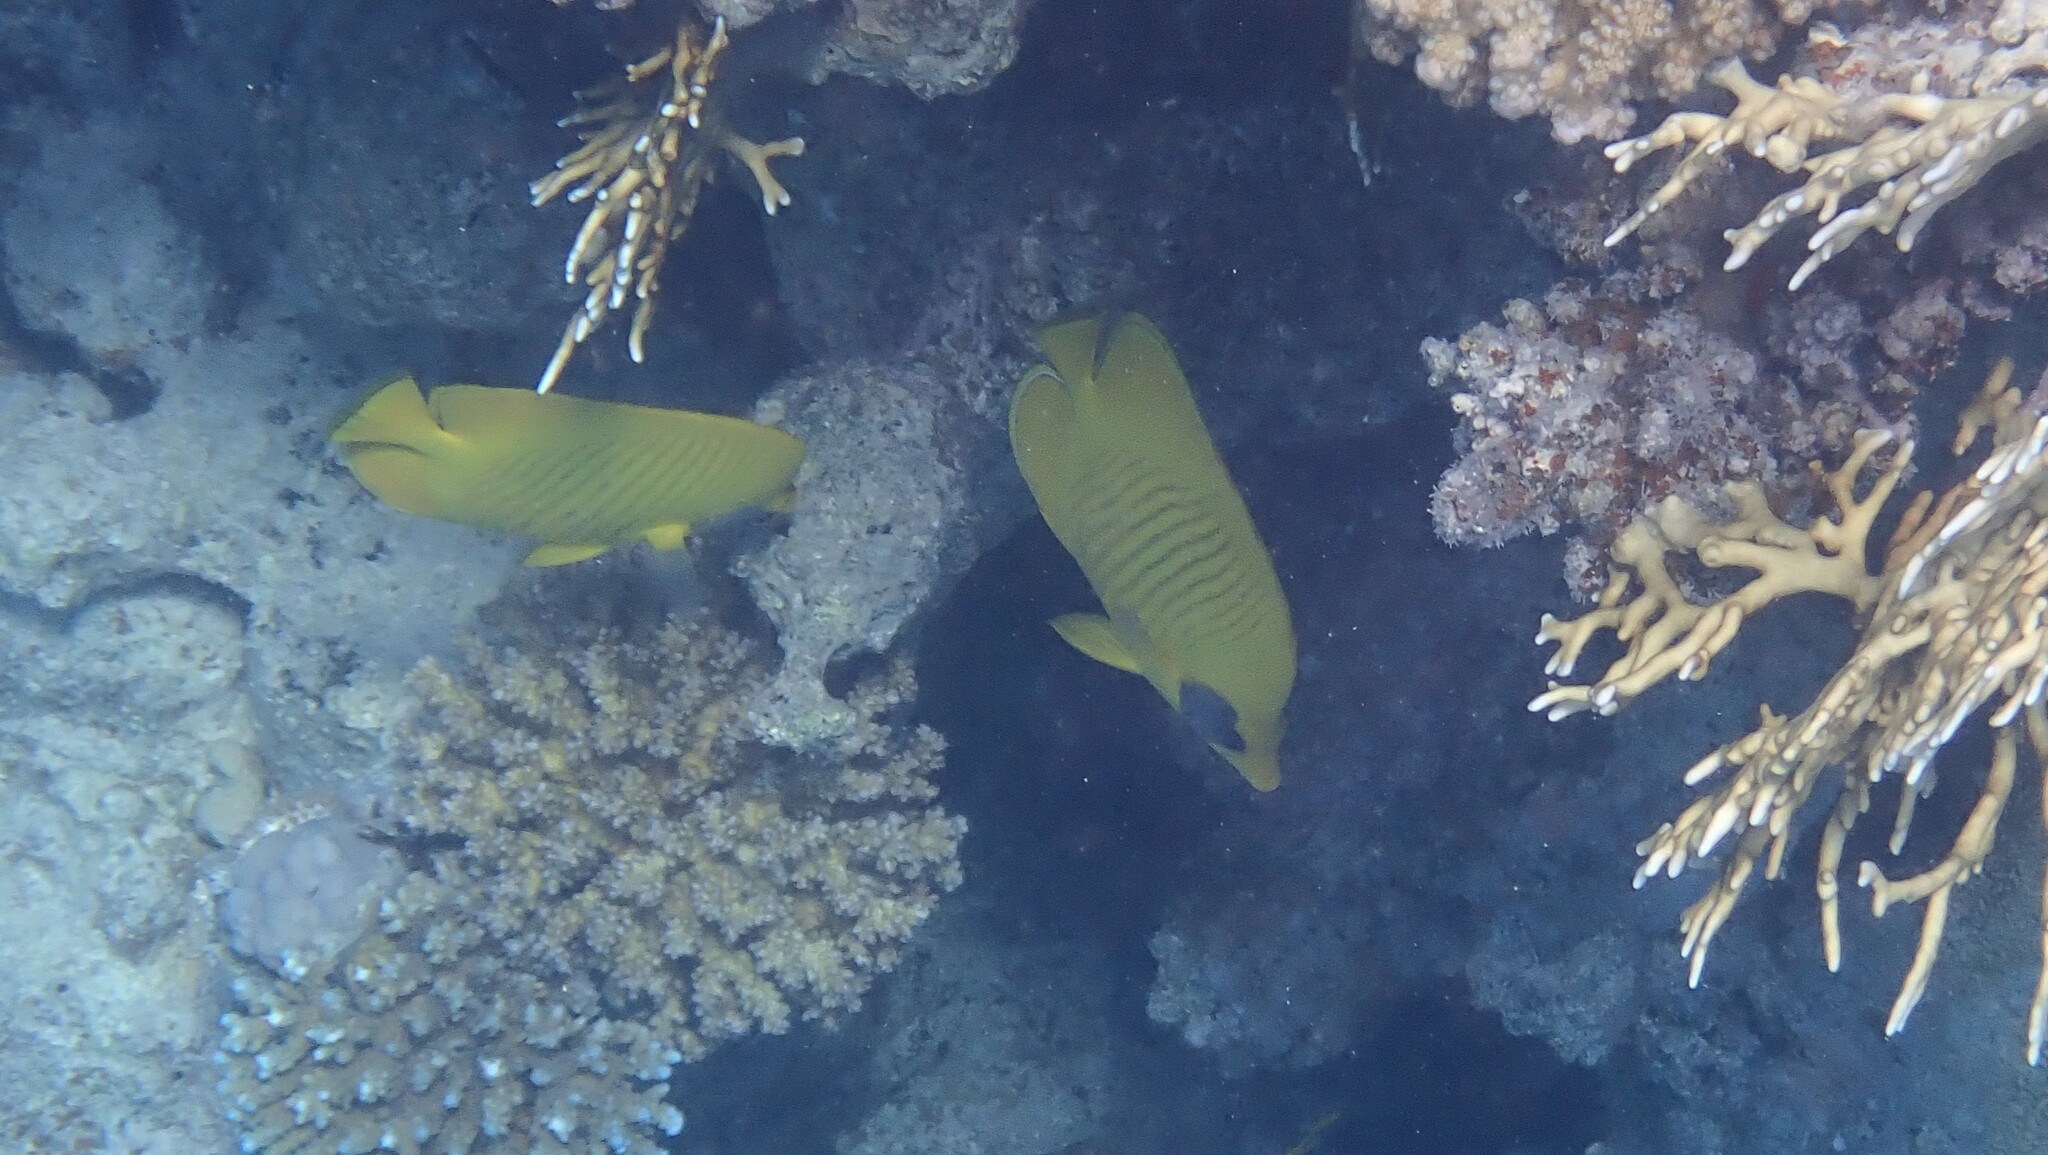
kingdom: Animalia
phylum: Chordata
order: Perciformes
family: Chaetodontidae
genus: Chaetodon
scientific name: Chaetodon semilarvatus
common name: Golden butterflyfish
